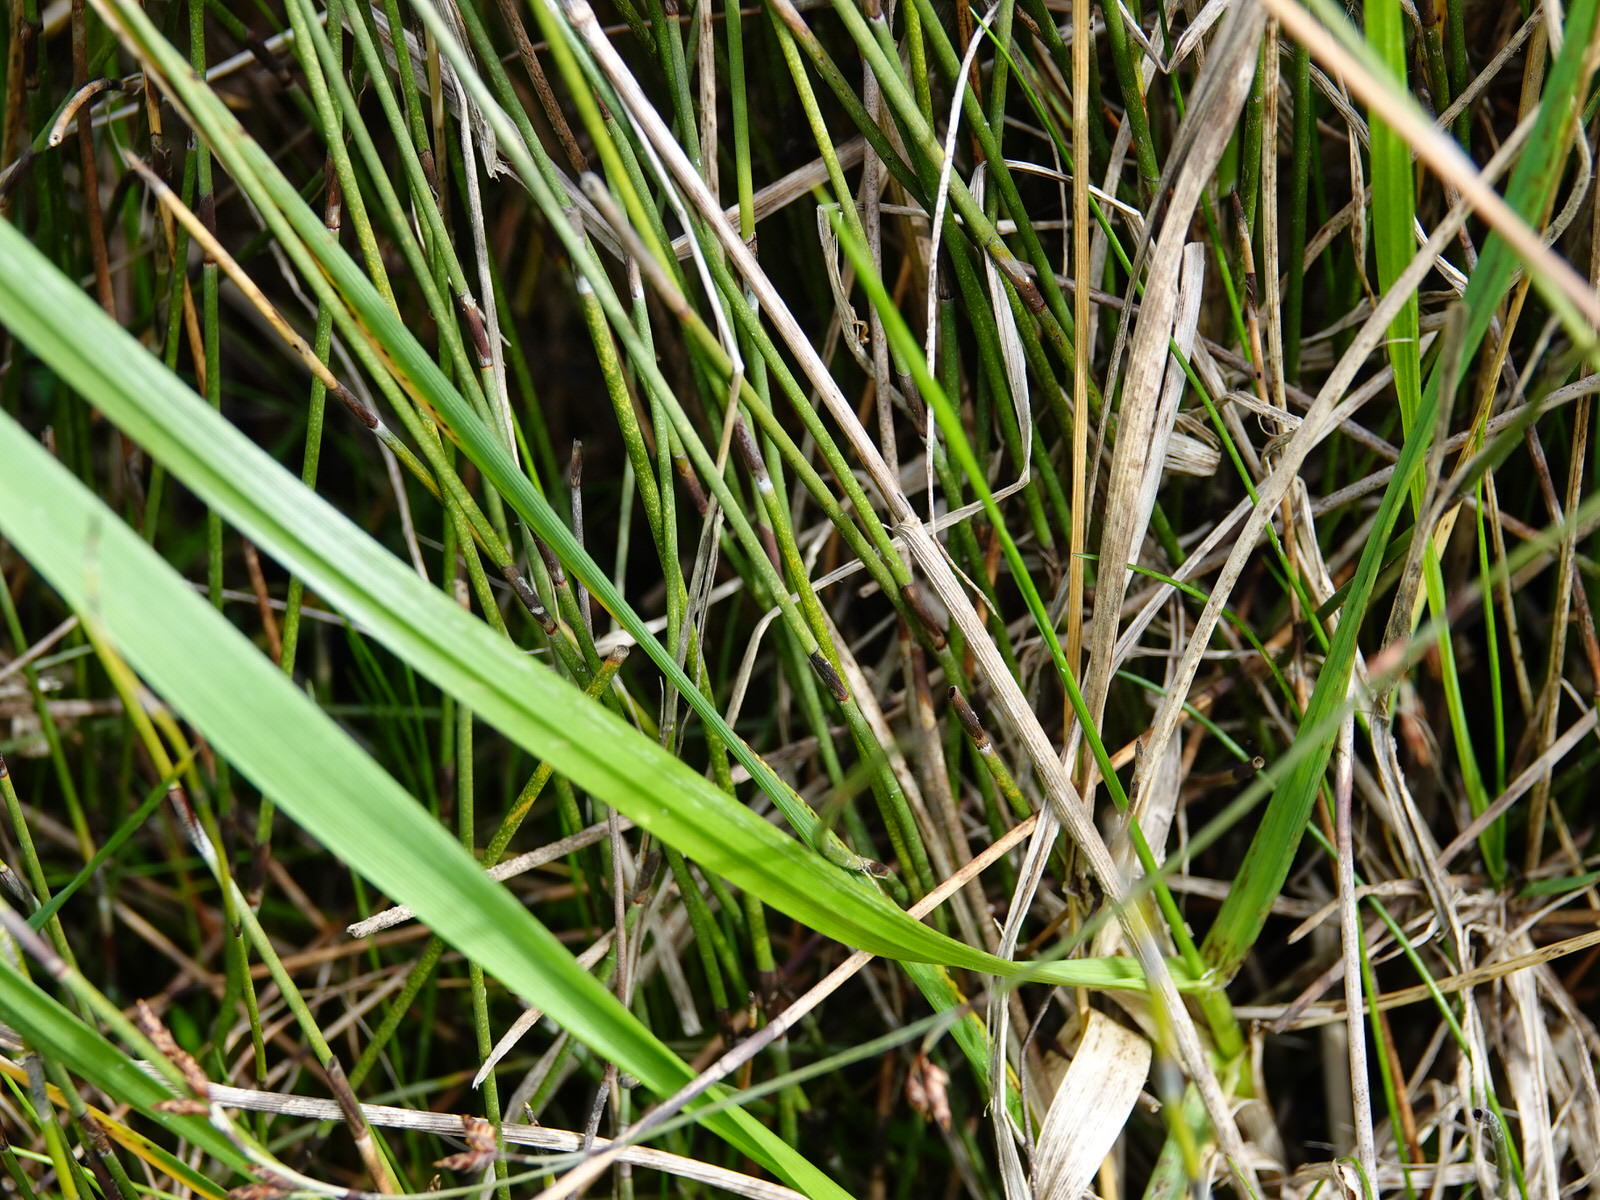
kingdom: Plantae
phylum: Tracheophyta
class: Liliopsida
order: Poales
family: Restionaceae
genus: Apodasmia
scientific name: Apodasmia similis
